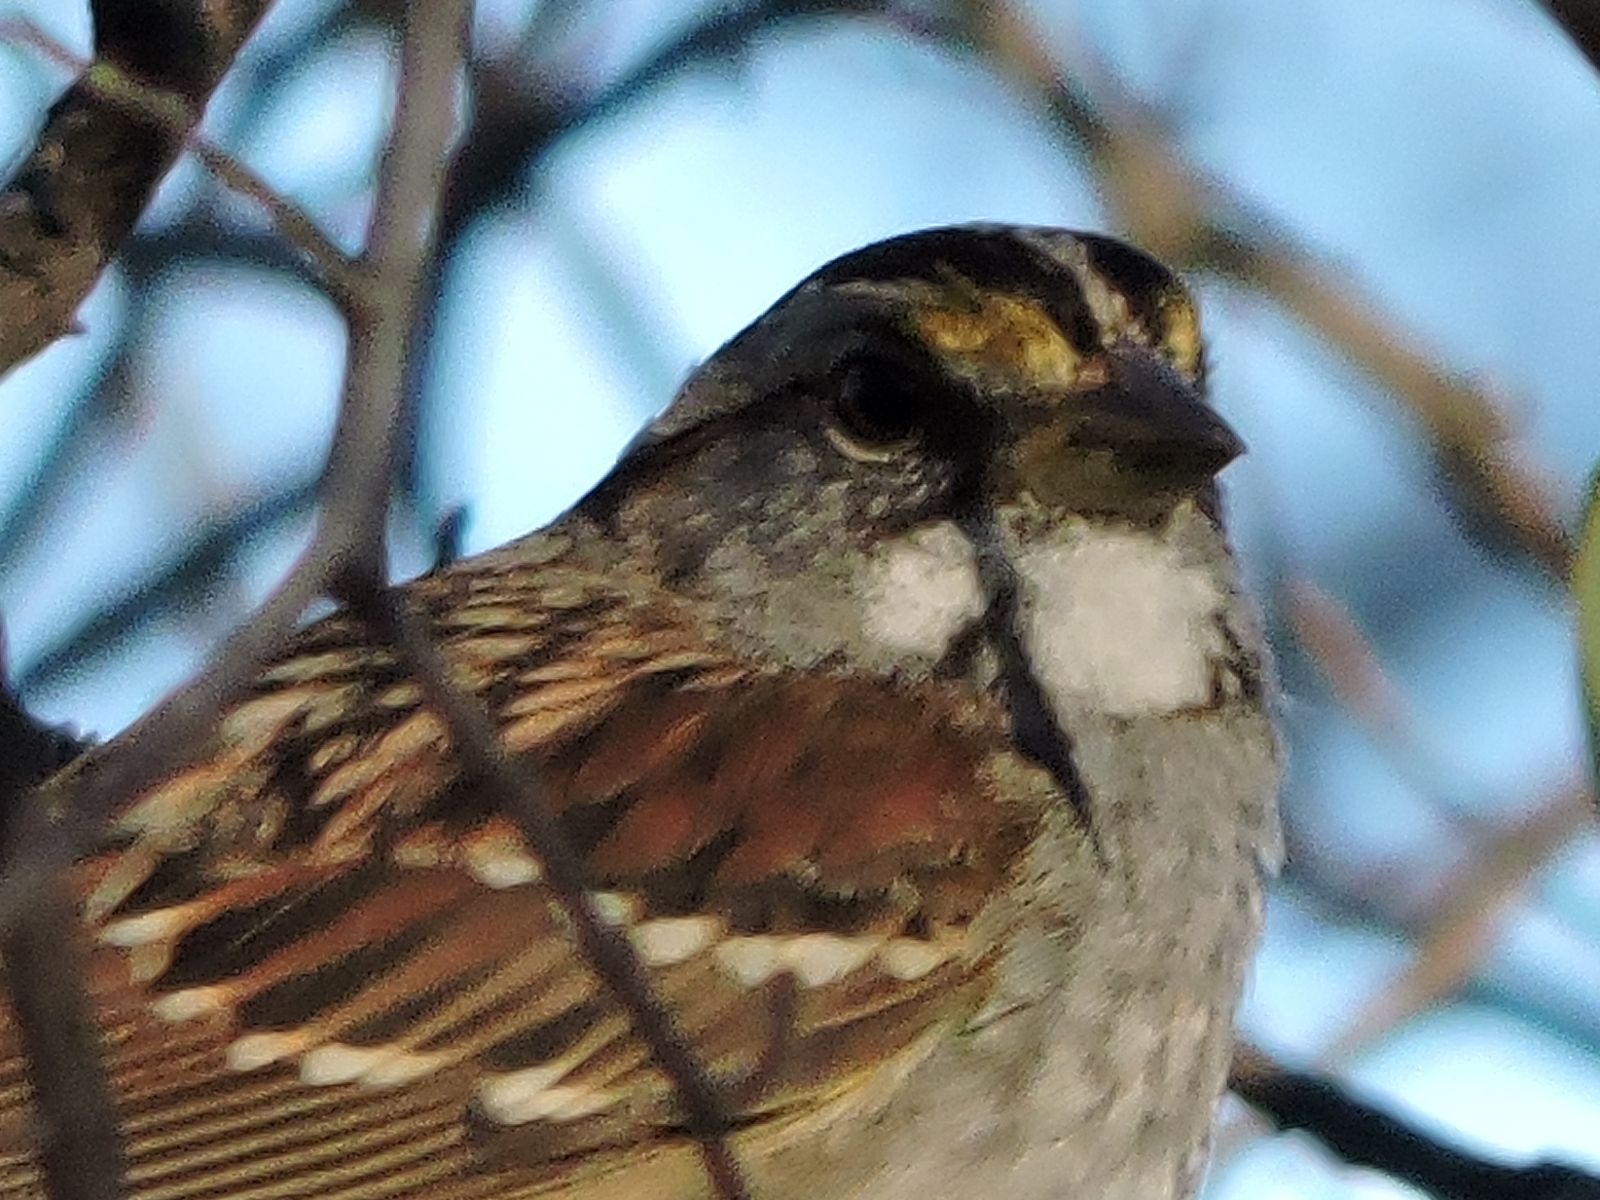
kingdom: Animalia
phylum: Chordata
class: Aves
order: Passeriformes
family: Passerellidae
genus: Zonotrichia
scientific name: Zonotrichia albicollis
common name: White-throated sparrow
